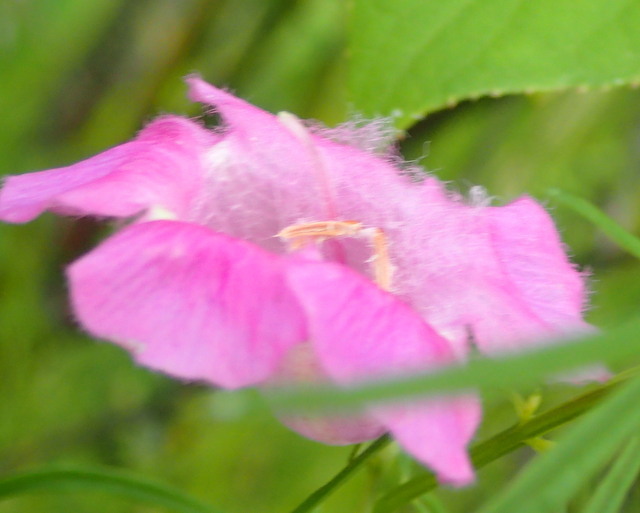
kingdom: Plantae
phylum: Tracheophyta
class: Magnoliopsida
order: Lamiales
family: Orobanchaceae
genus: Agalinis
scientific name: Agalinis purpurea
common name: Purple false foxglove
